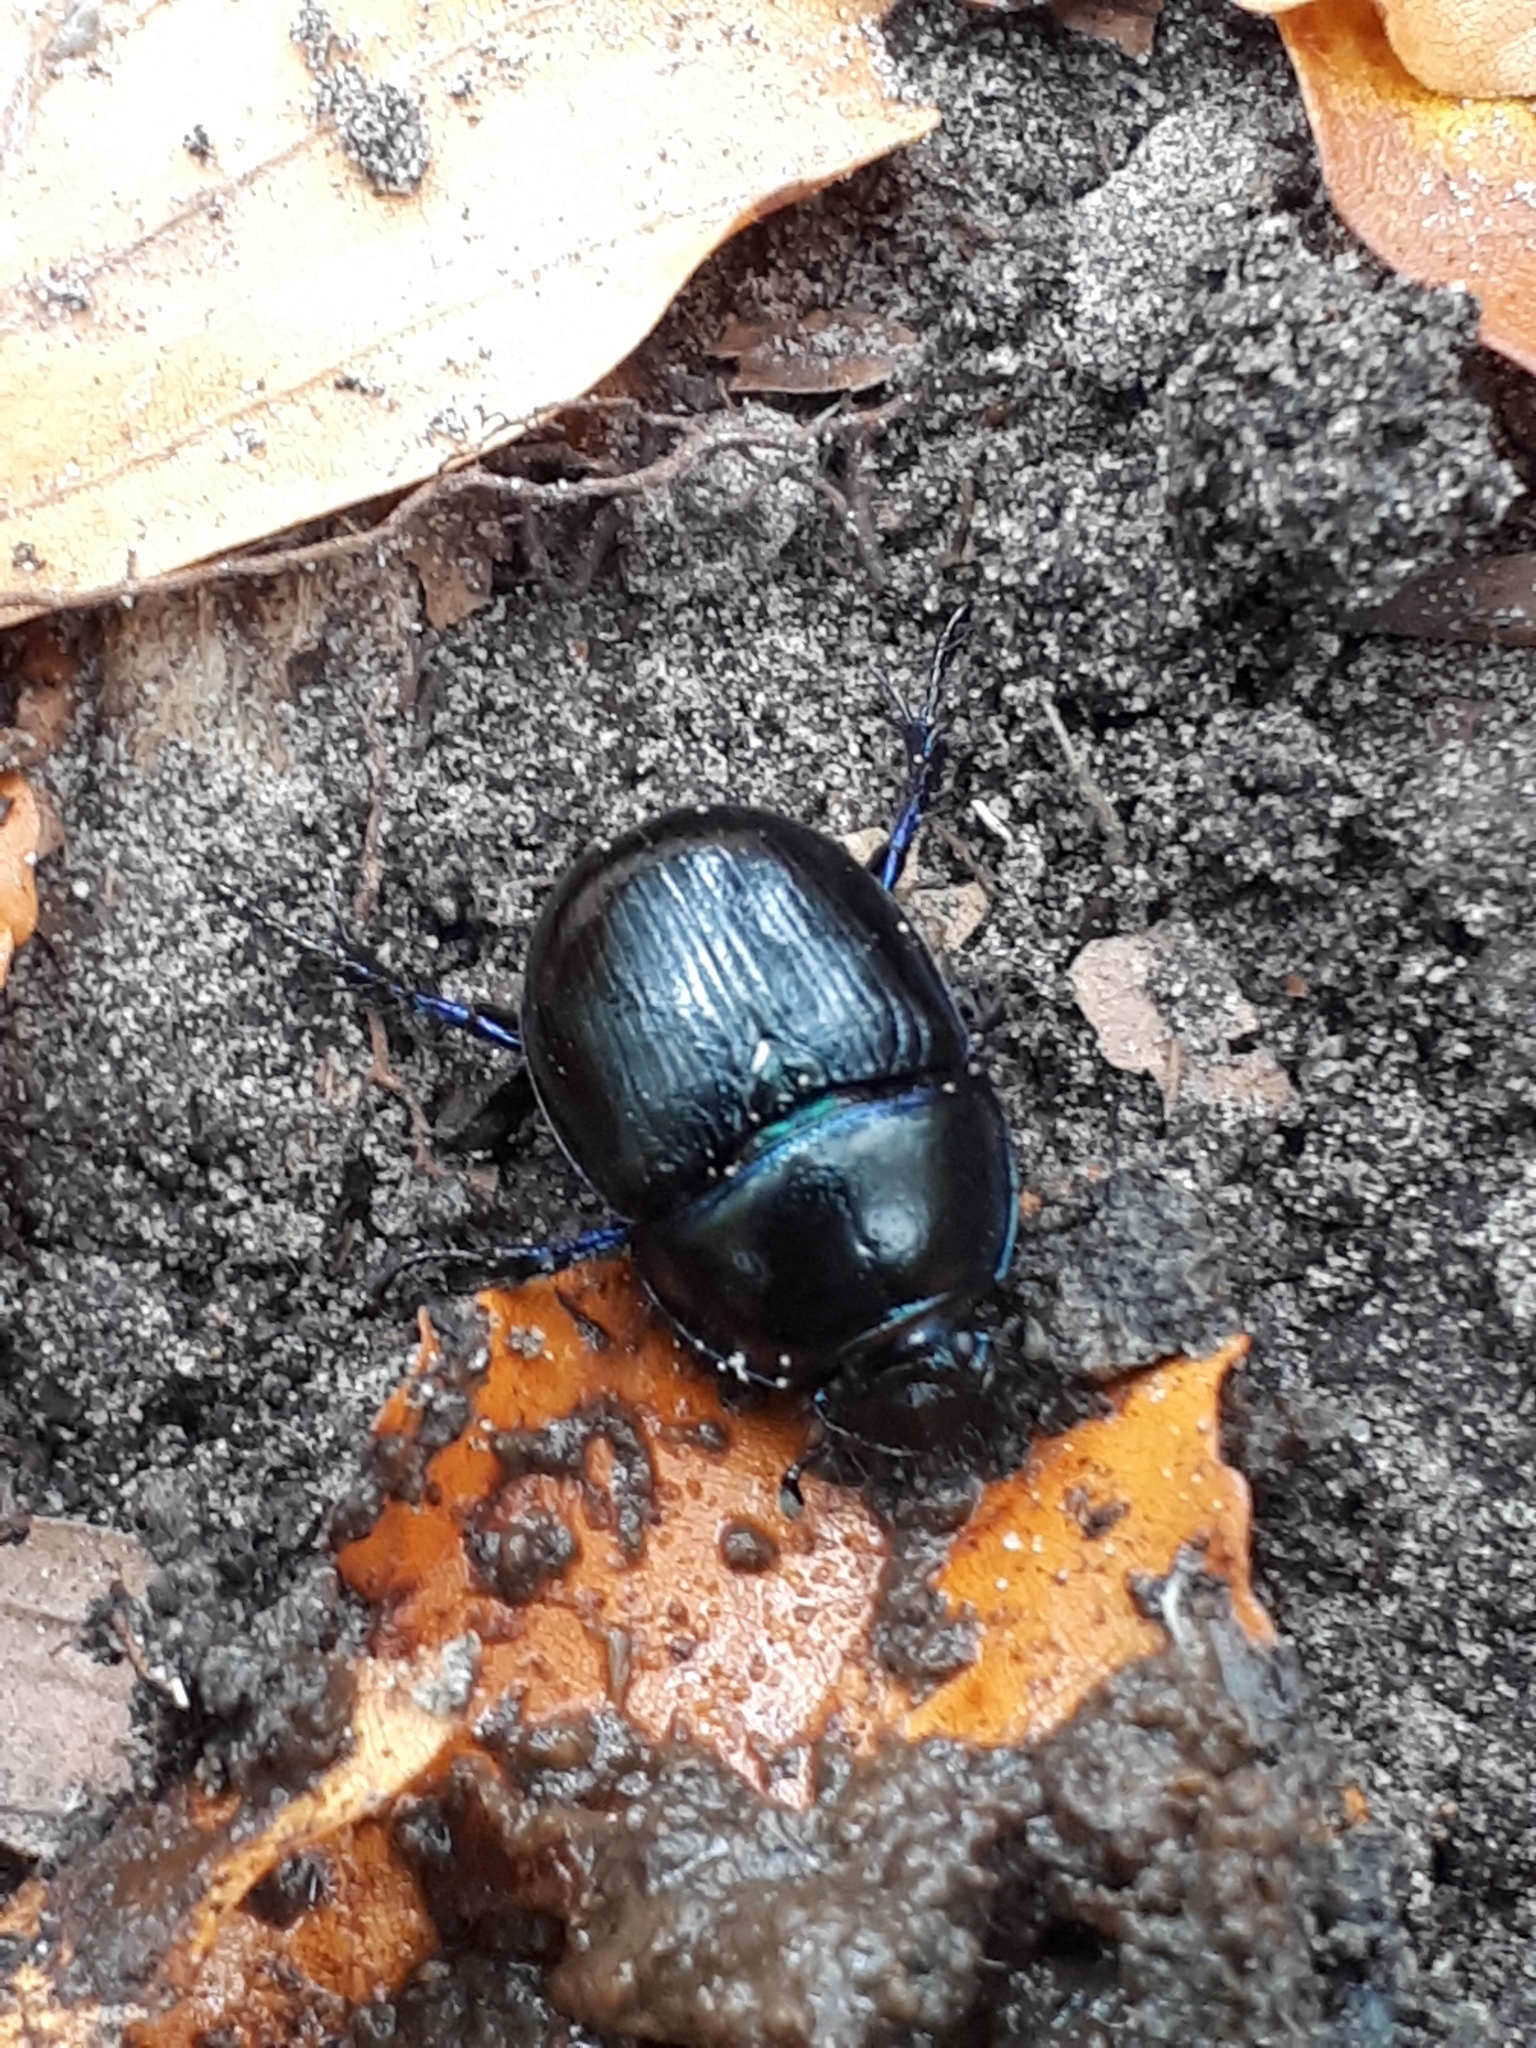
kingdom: Animalia
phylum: Arthropoda
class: Insecta
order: Coleoptera
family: Geotrupidae
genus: Anoplotrupes
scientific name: Anoplotrupes stercorosus
